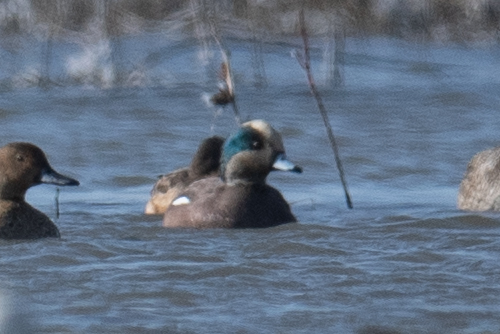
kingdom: Animalia
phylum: Chordata
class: Aves
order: Anseriformes
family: Anatidae
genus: Mareca
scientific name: Mareca americana
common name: American wigeon
